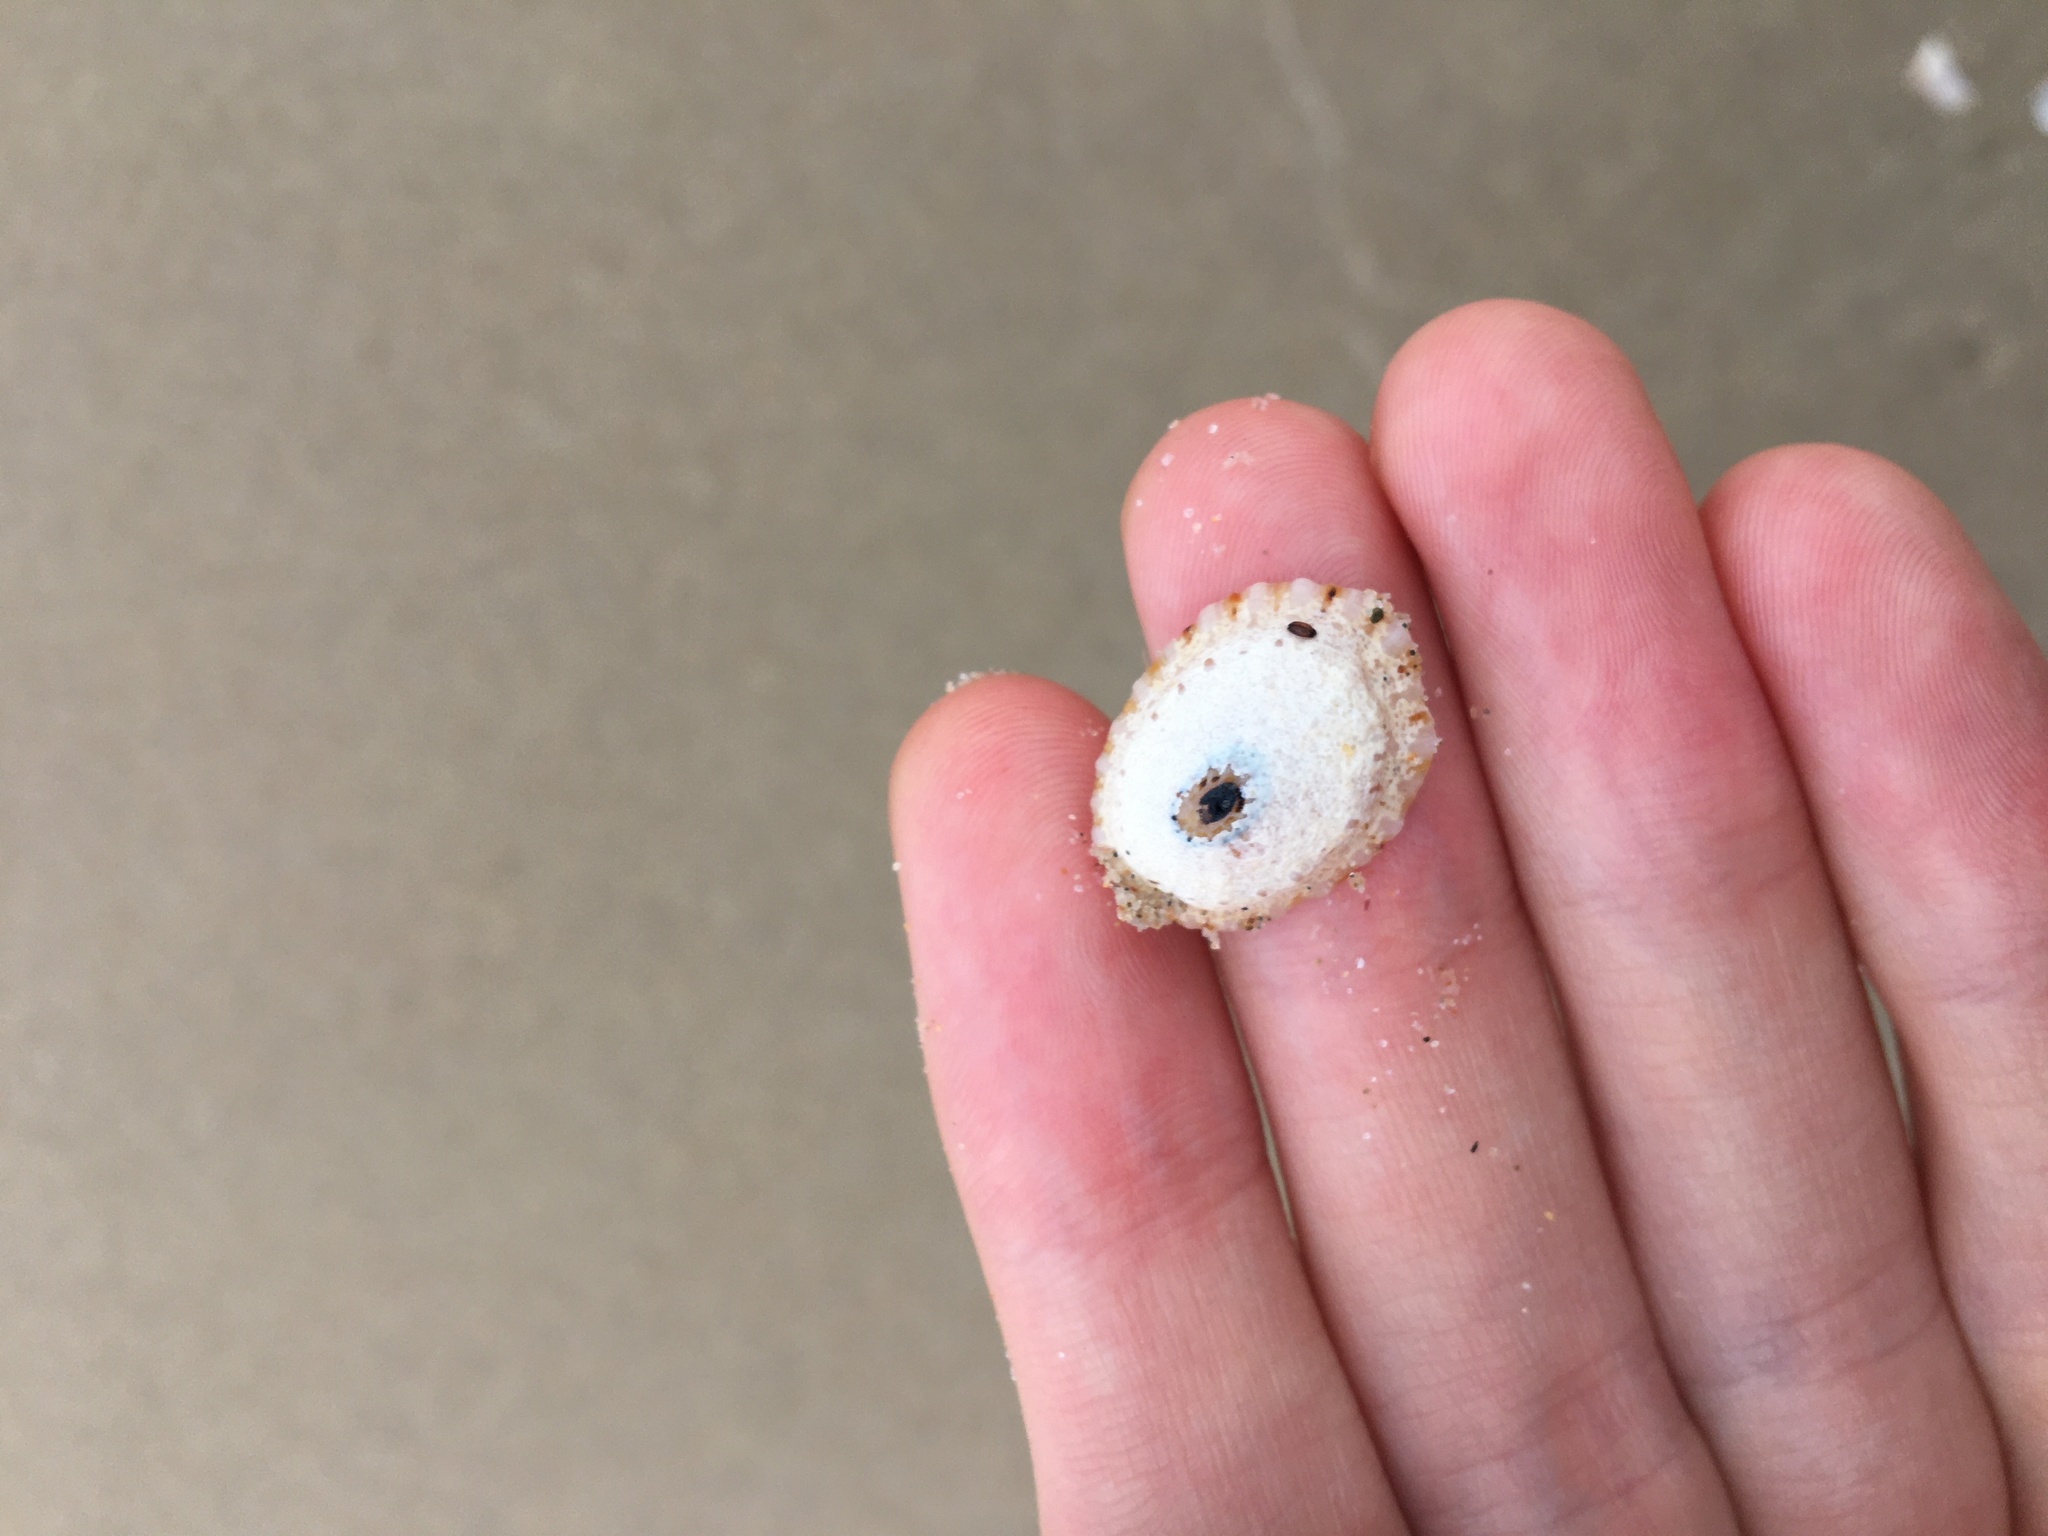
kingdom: Animalia
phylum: Mollusca
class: Gastropoda
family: Patellidae
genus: Scutellastra
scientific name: Scutellastra peronii
